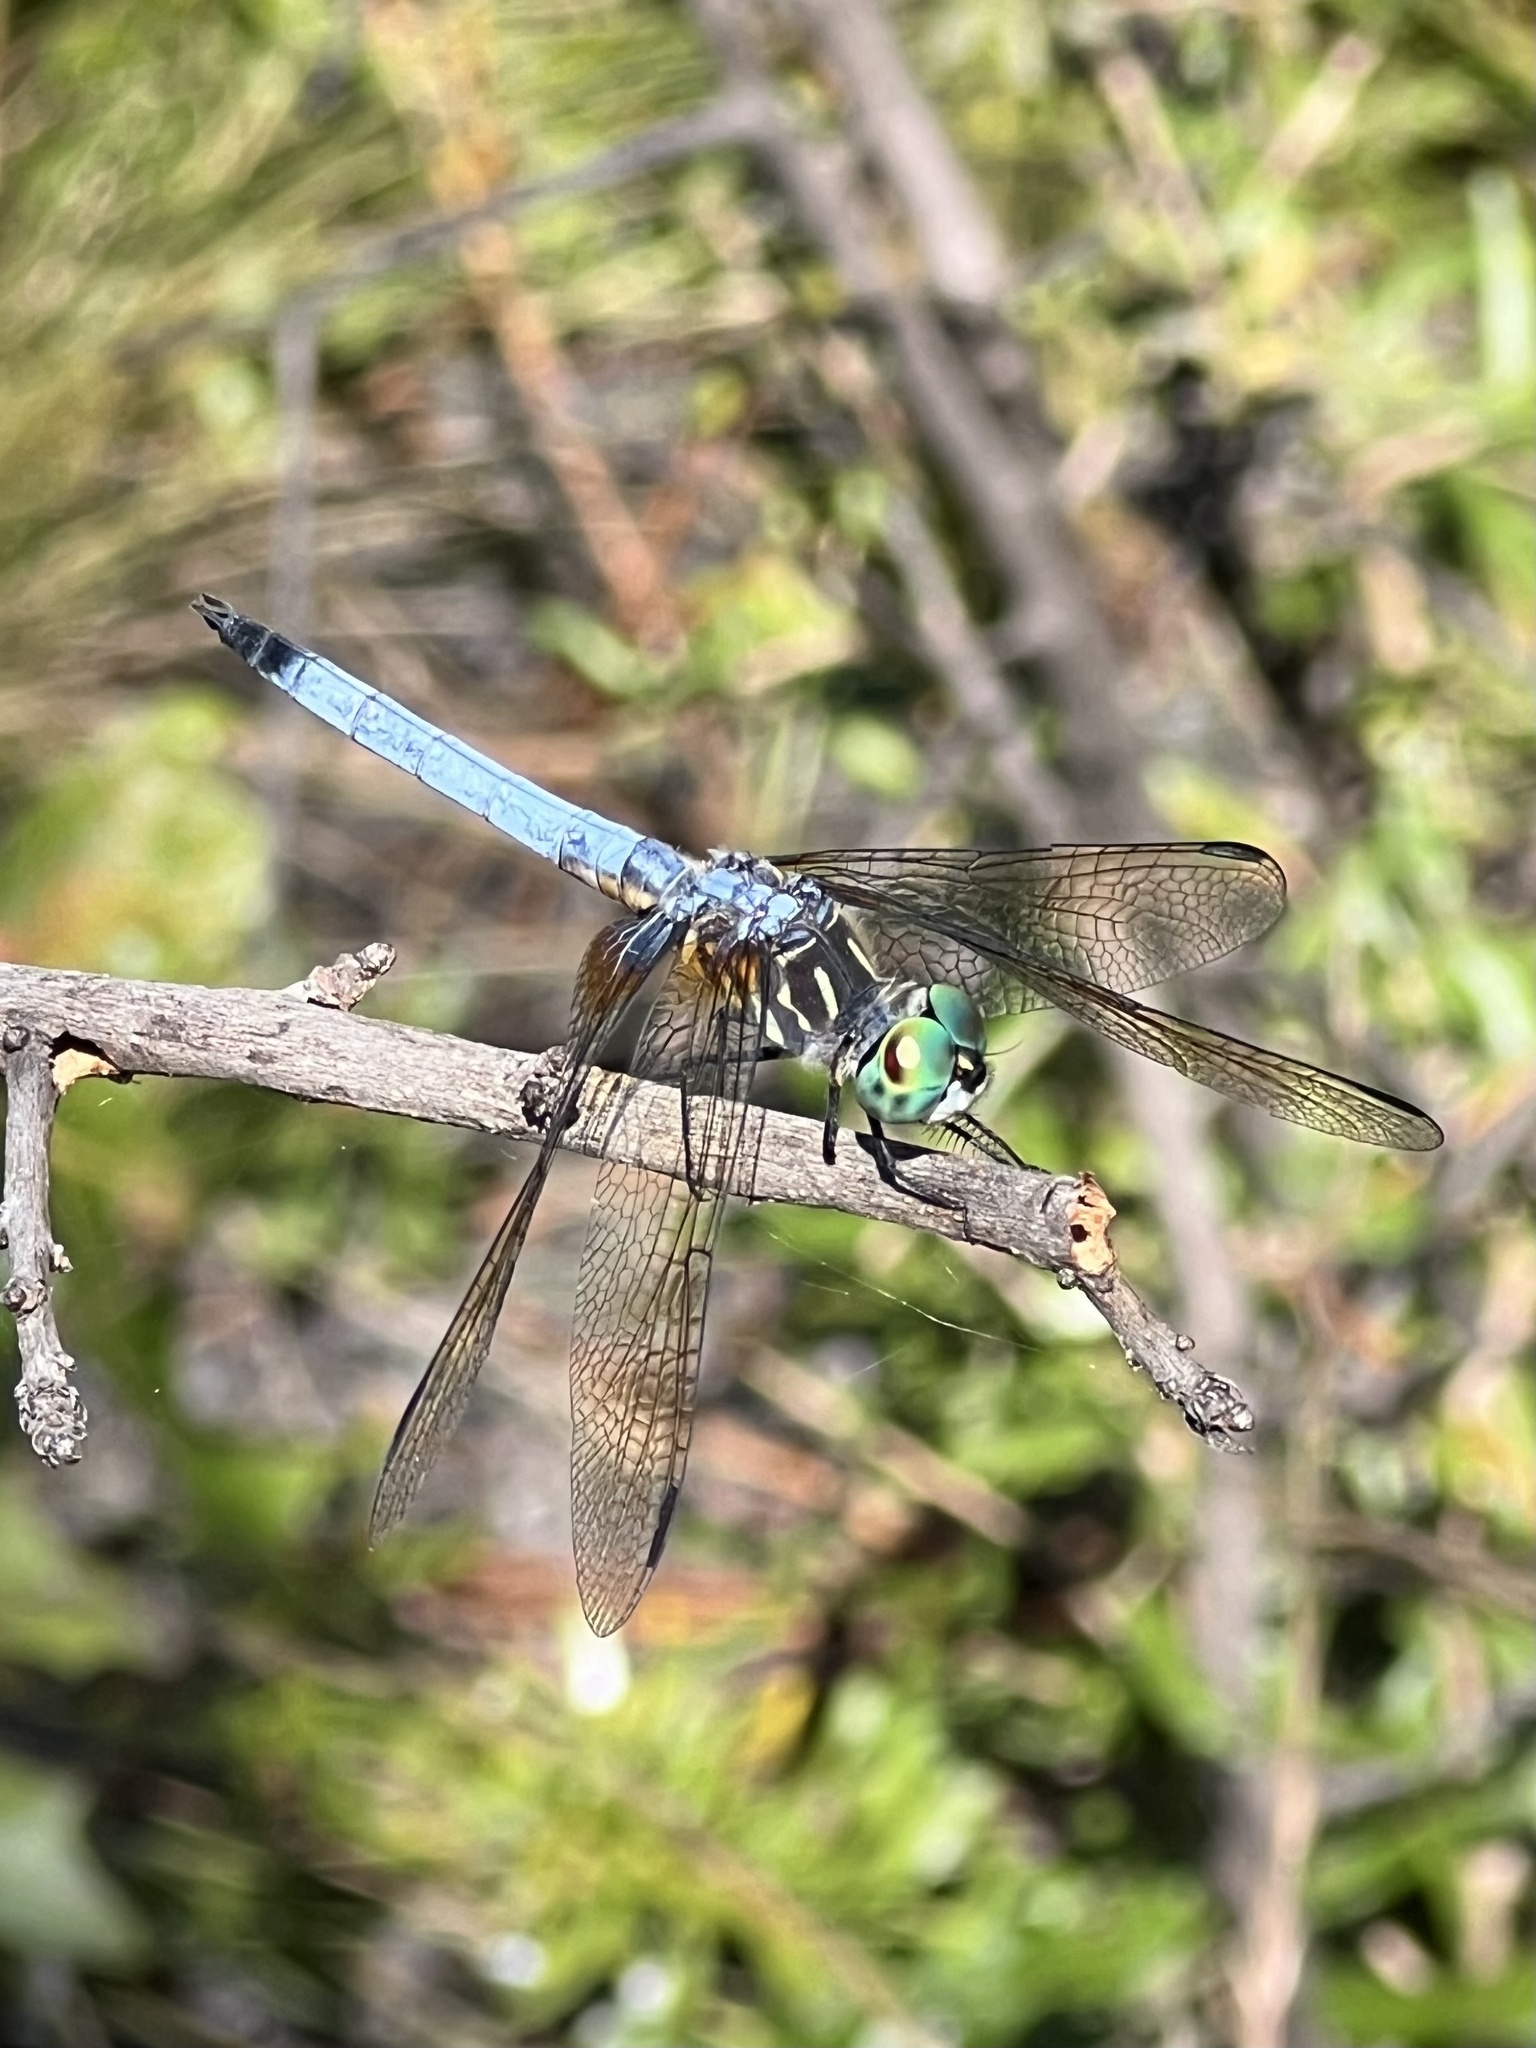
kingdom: Animalia
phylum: Arthropoda
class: Insecta
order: Odonata
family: Libellulidae
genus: Pachydiplax
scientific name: Pachydiplax longipennis
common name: Blue dasher
